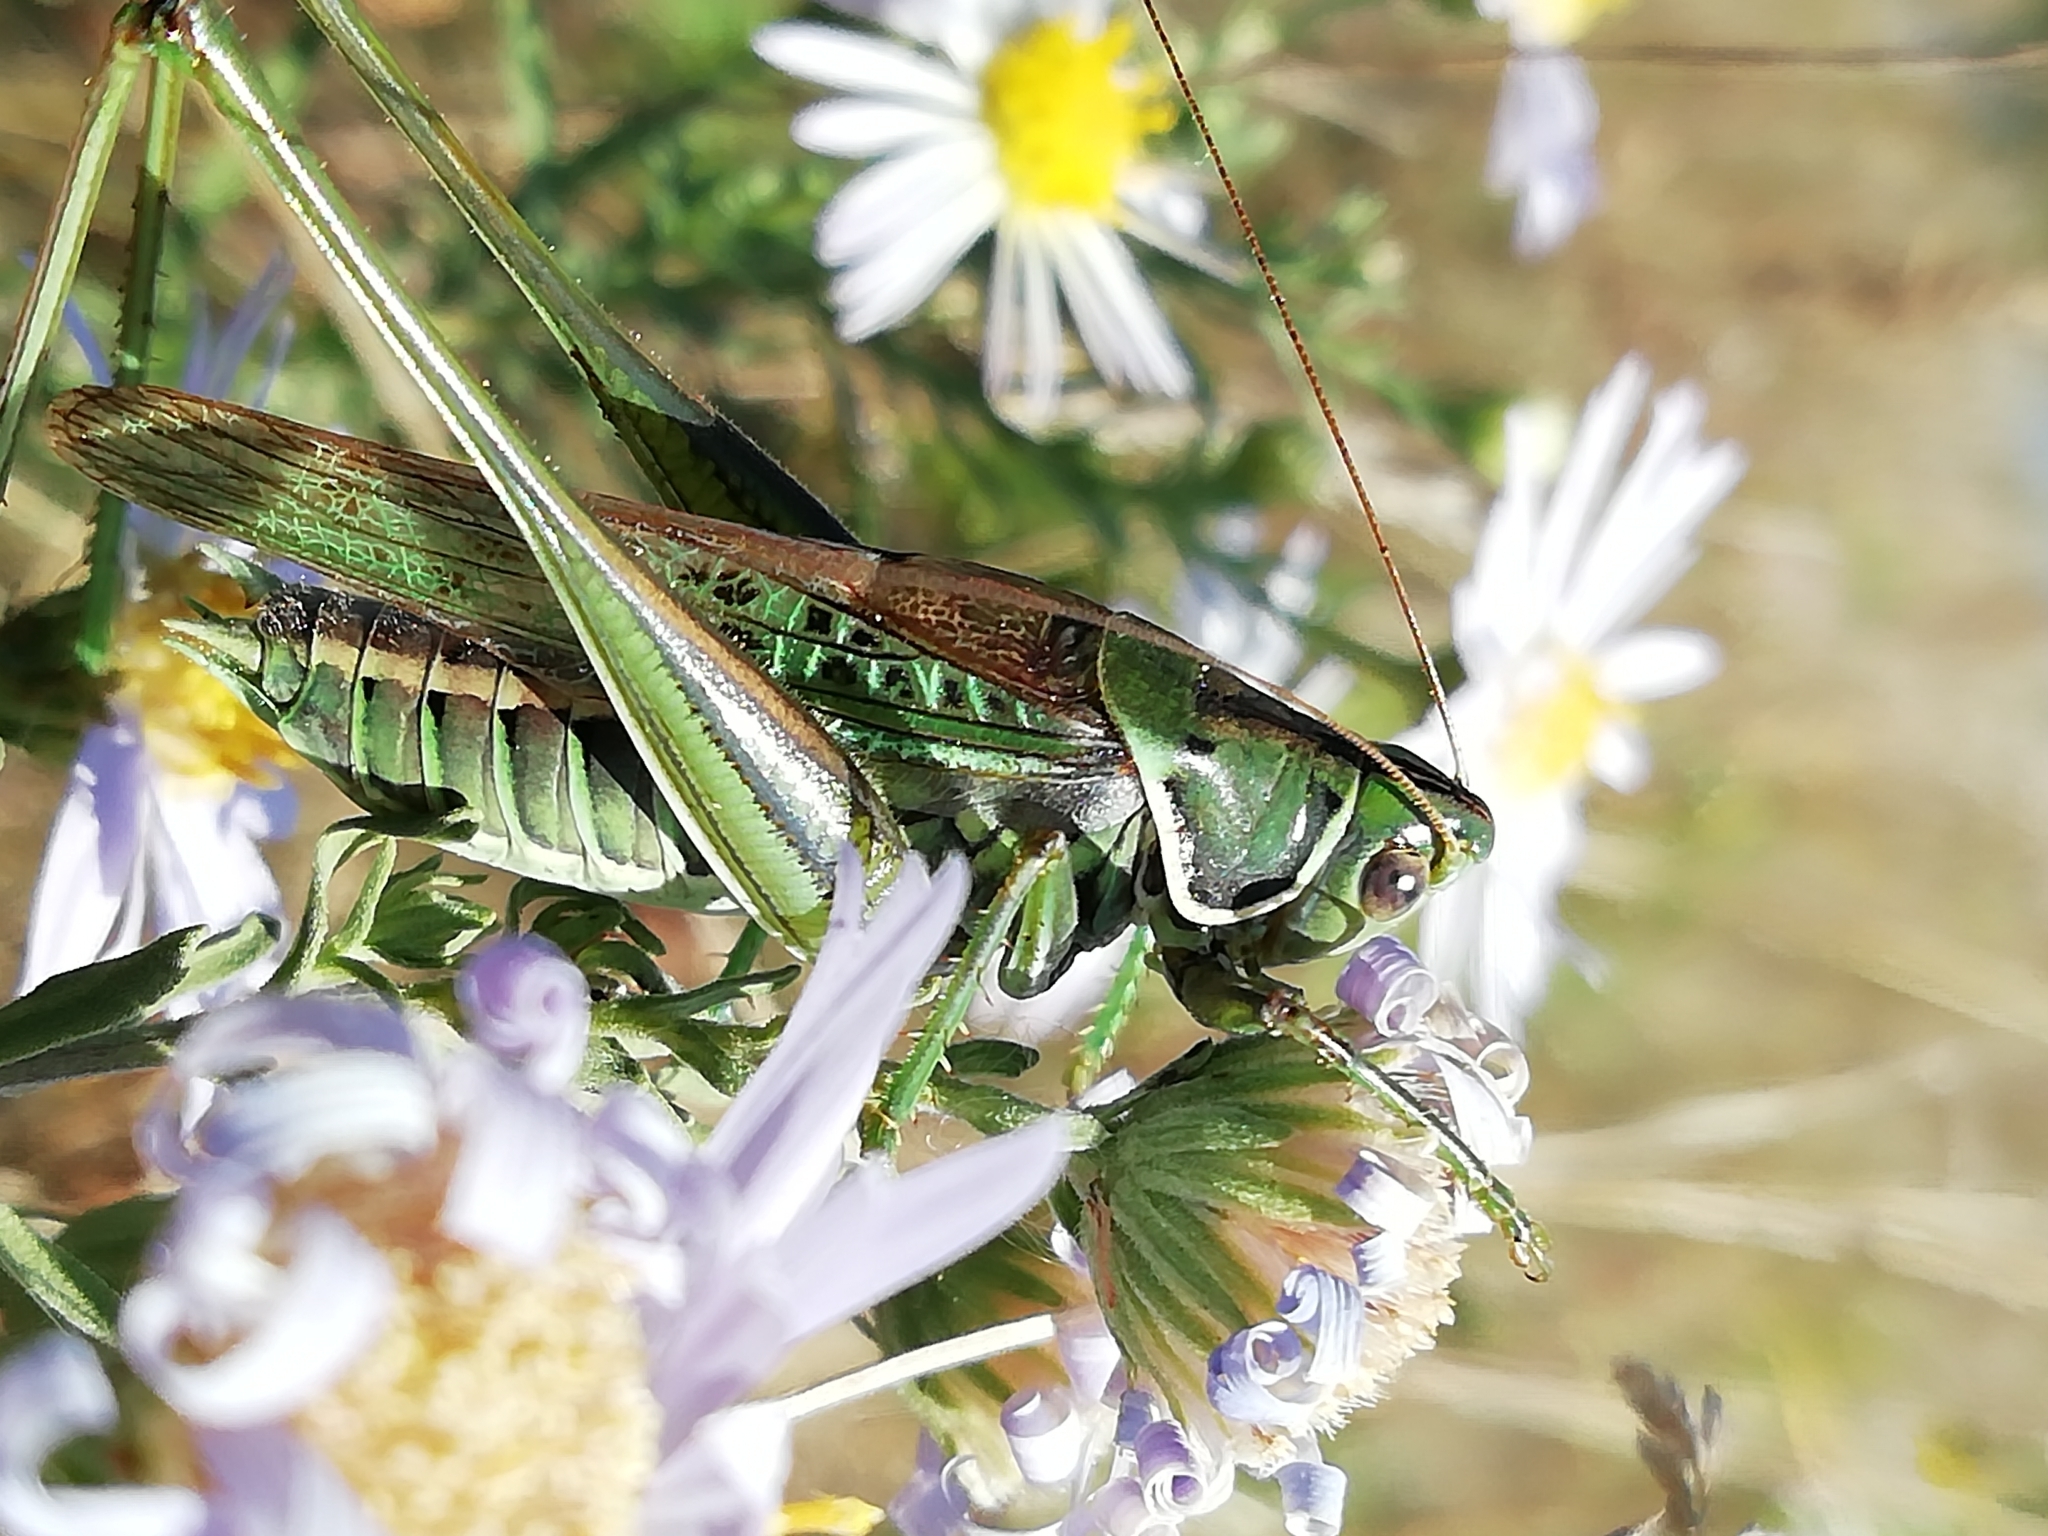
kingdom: Animalia
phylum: Arthropoda
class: Insecta
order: Orthoptera
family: Tettigoniidae
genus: Gampsocleis
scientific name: Gampsocleis glabra
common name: Heath bushcricket
